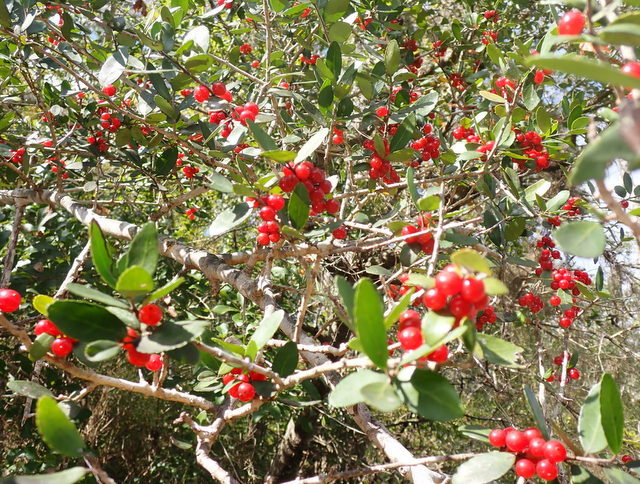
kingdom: Plantae
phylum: Tracheophyta
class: Magnoliopsida
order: Aquifoliales
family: Aquifoliaceae
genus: Ilex
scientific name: Ilex vomitoria
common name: Yaupon holly
